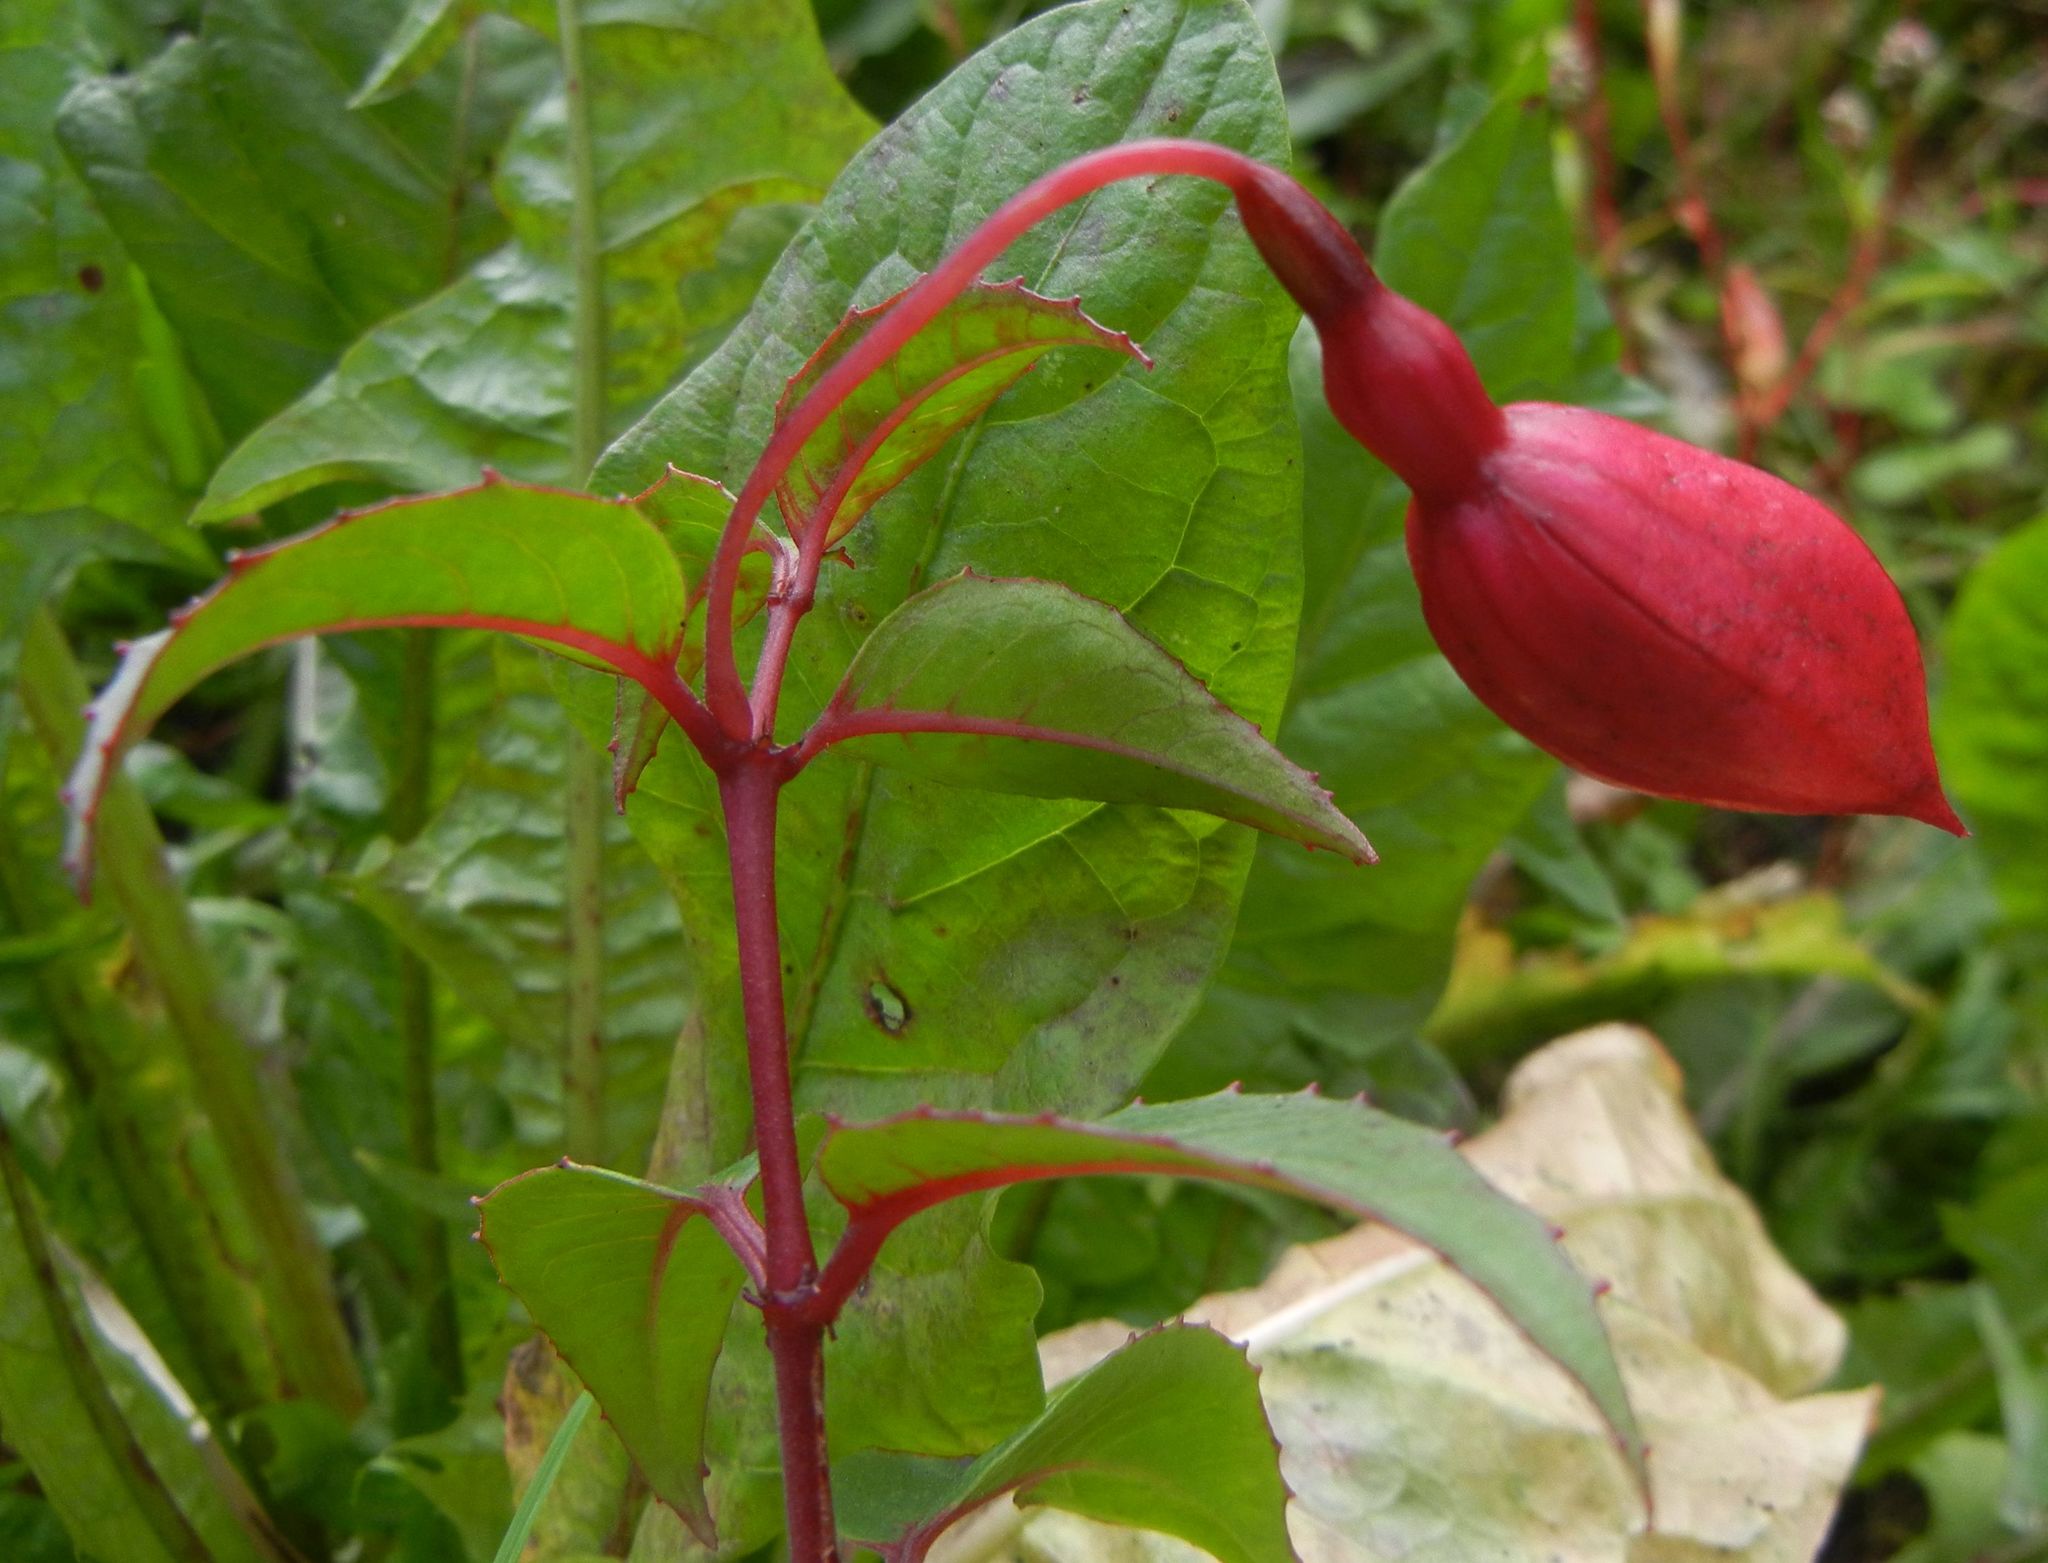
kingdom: Plantae
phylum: Tracheophyta
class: Magnoliopsida
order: Myrtales
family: Onagraceae
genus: Fuchsia
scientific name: Fuchsia magellanica
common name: Hardy fuchsia
